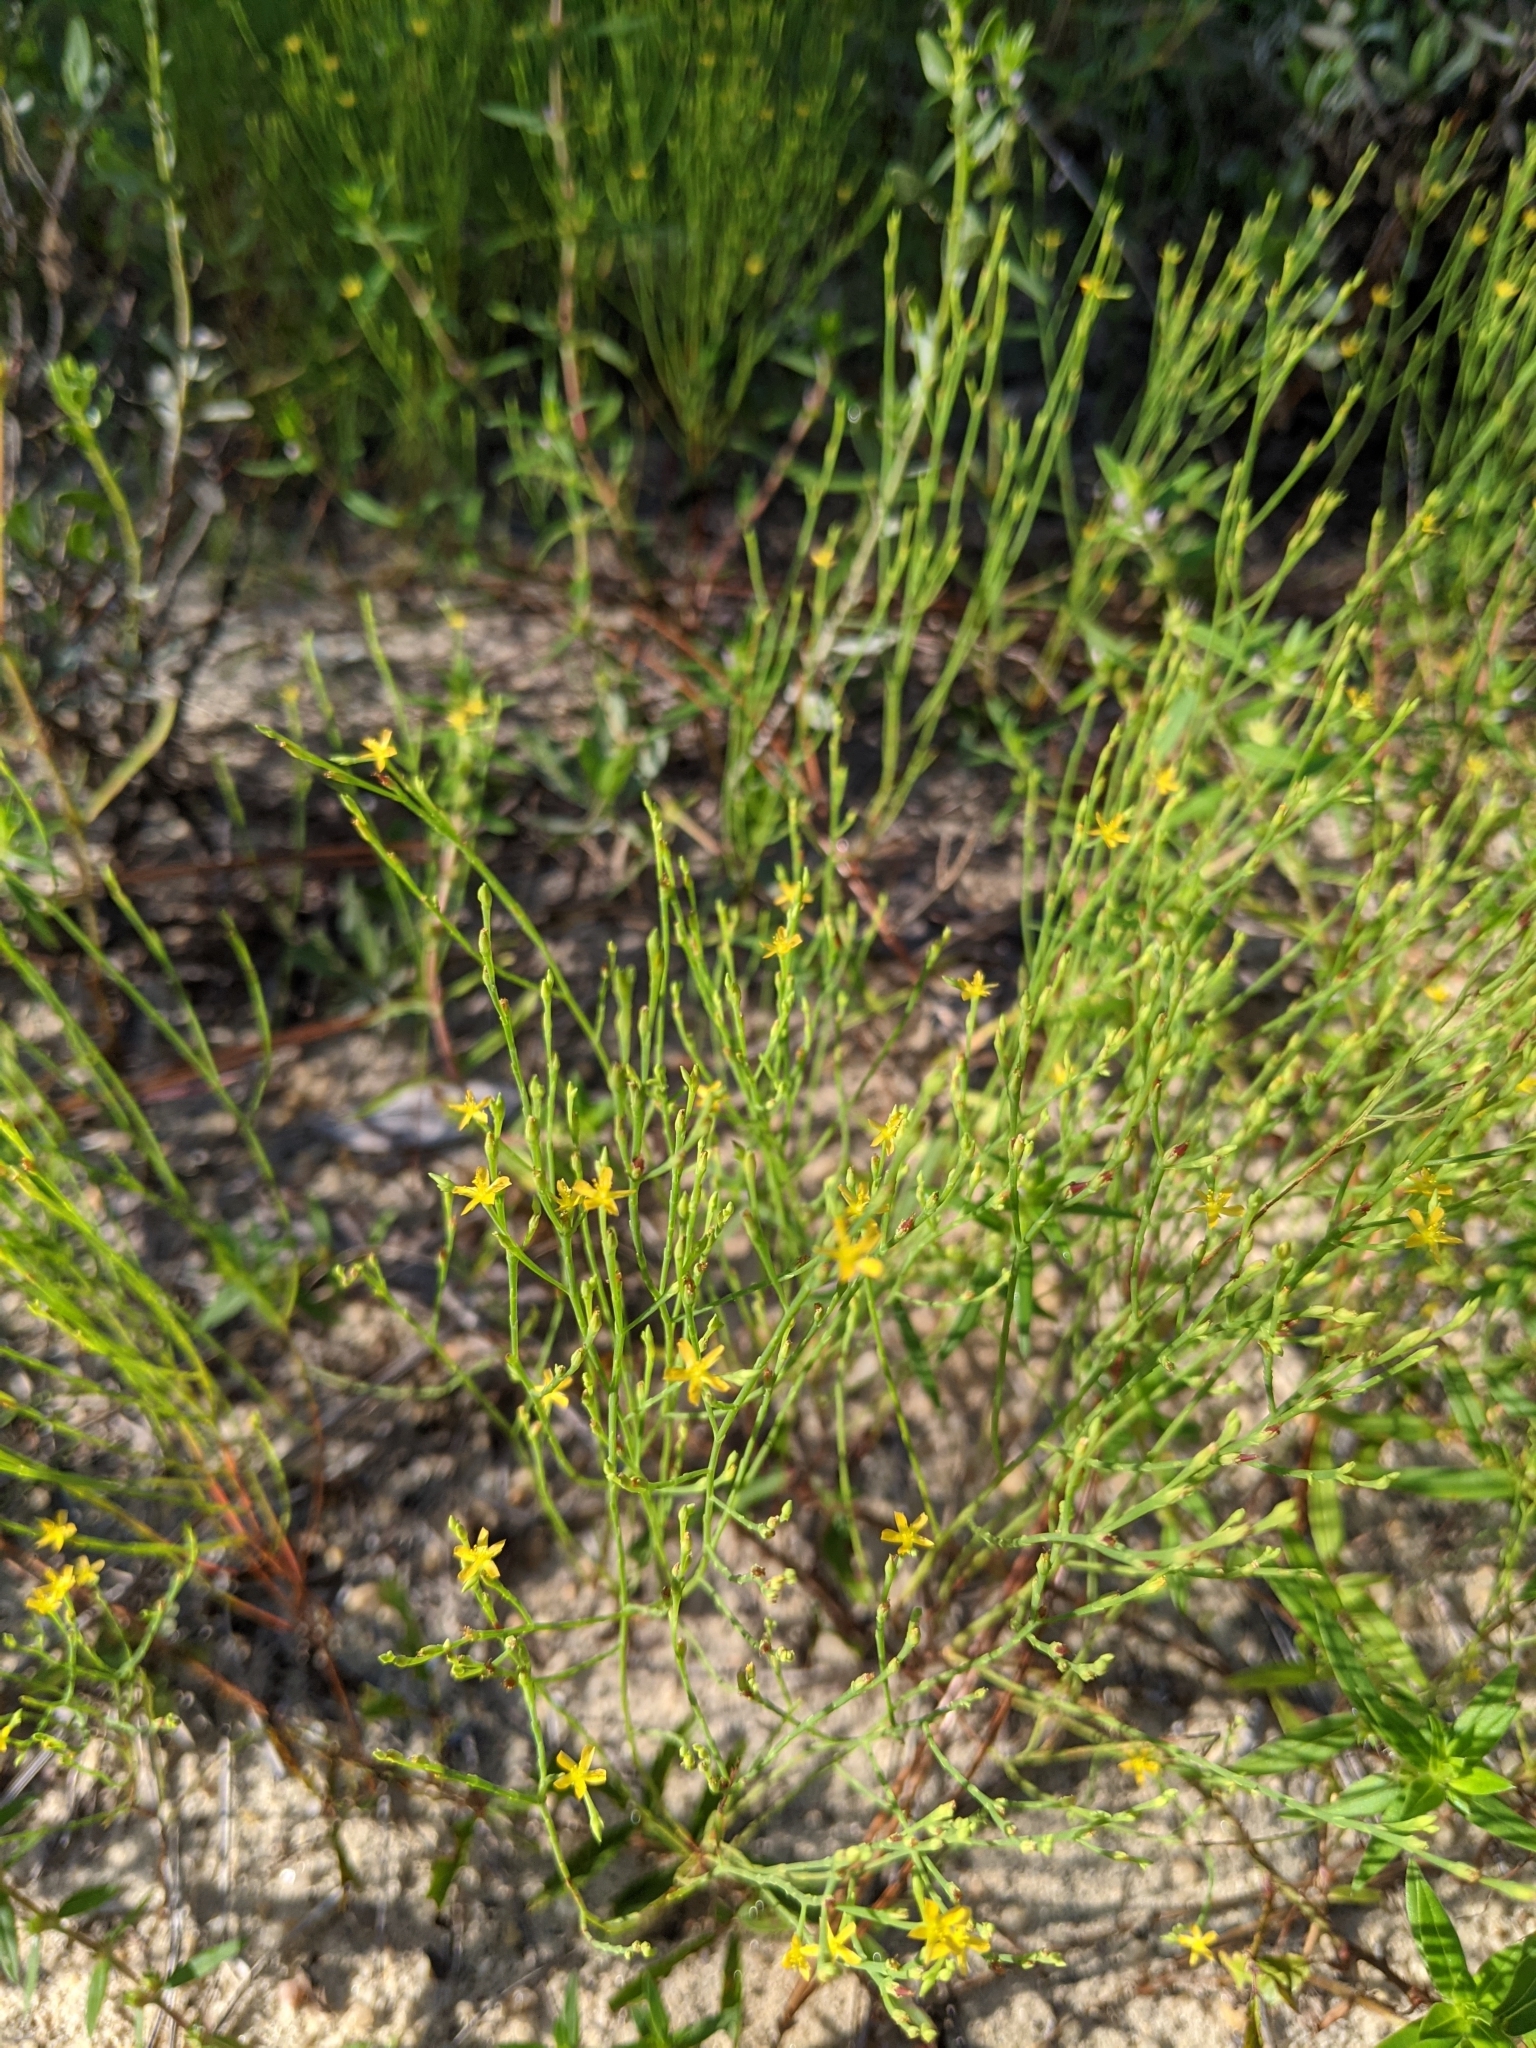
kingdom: Plantae
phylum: Tracheophyta
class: Magnoliopsida
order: Malpighiales
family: Hypericaceae
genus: Hypericum
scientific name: Hypericum gentianoides
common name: Gentian-leaved st. john's-wort
